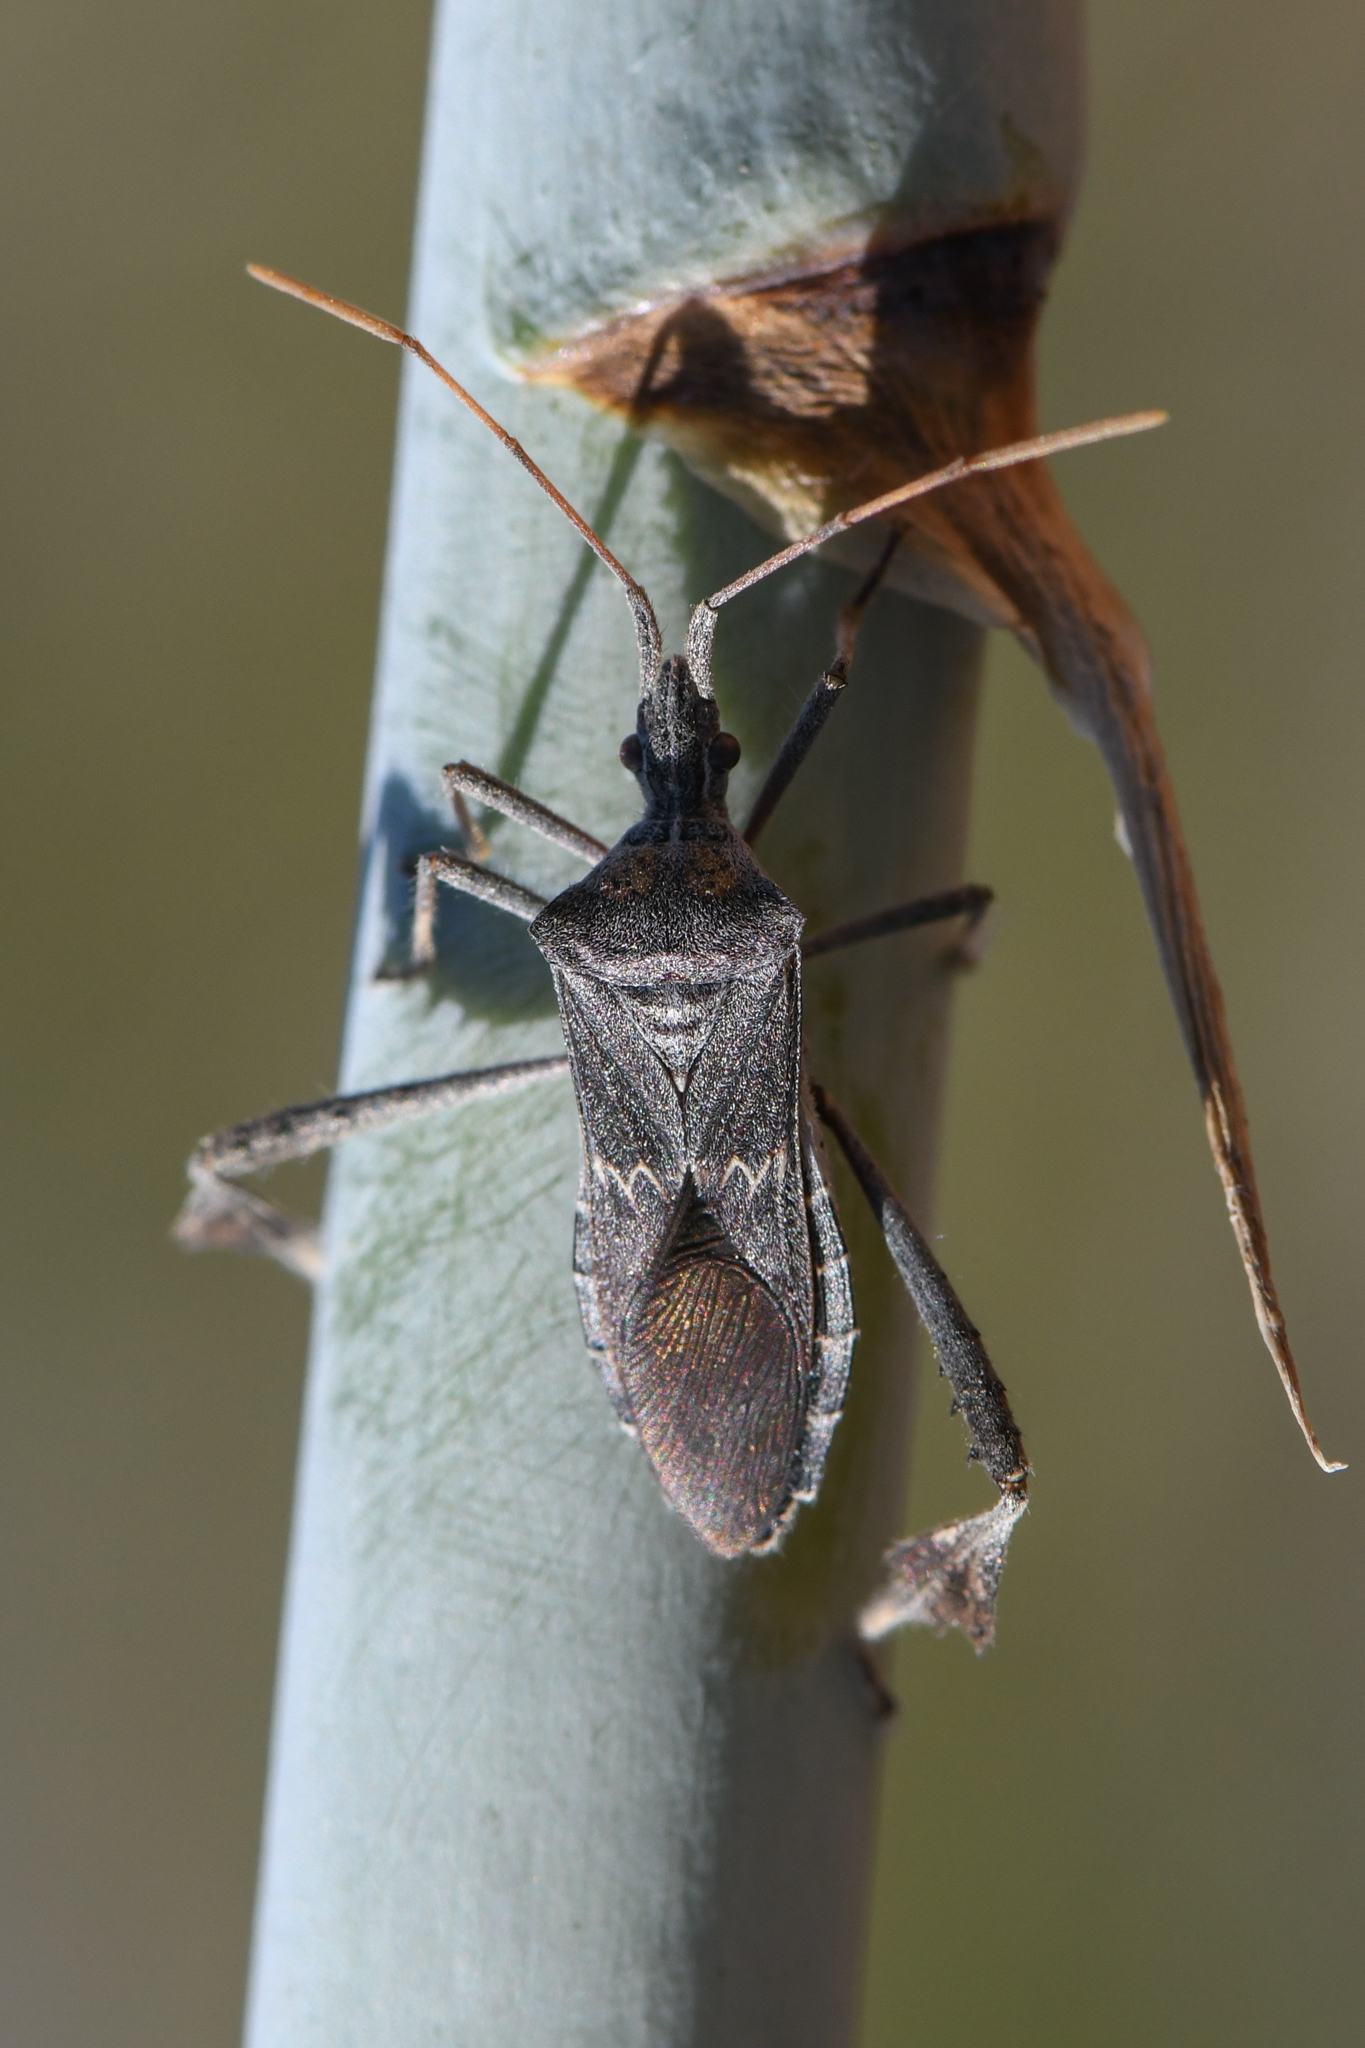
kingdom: Animalia
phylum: Arthropoda
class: Insecta
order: Hemiptera
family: Coreidae
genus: Leptoglossus
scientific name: Leptoglossus zonatus
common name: Large-legged bug
